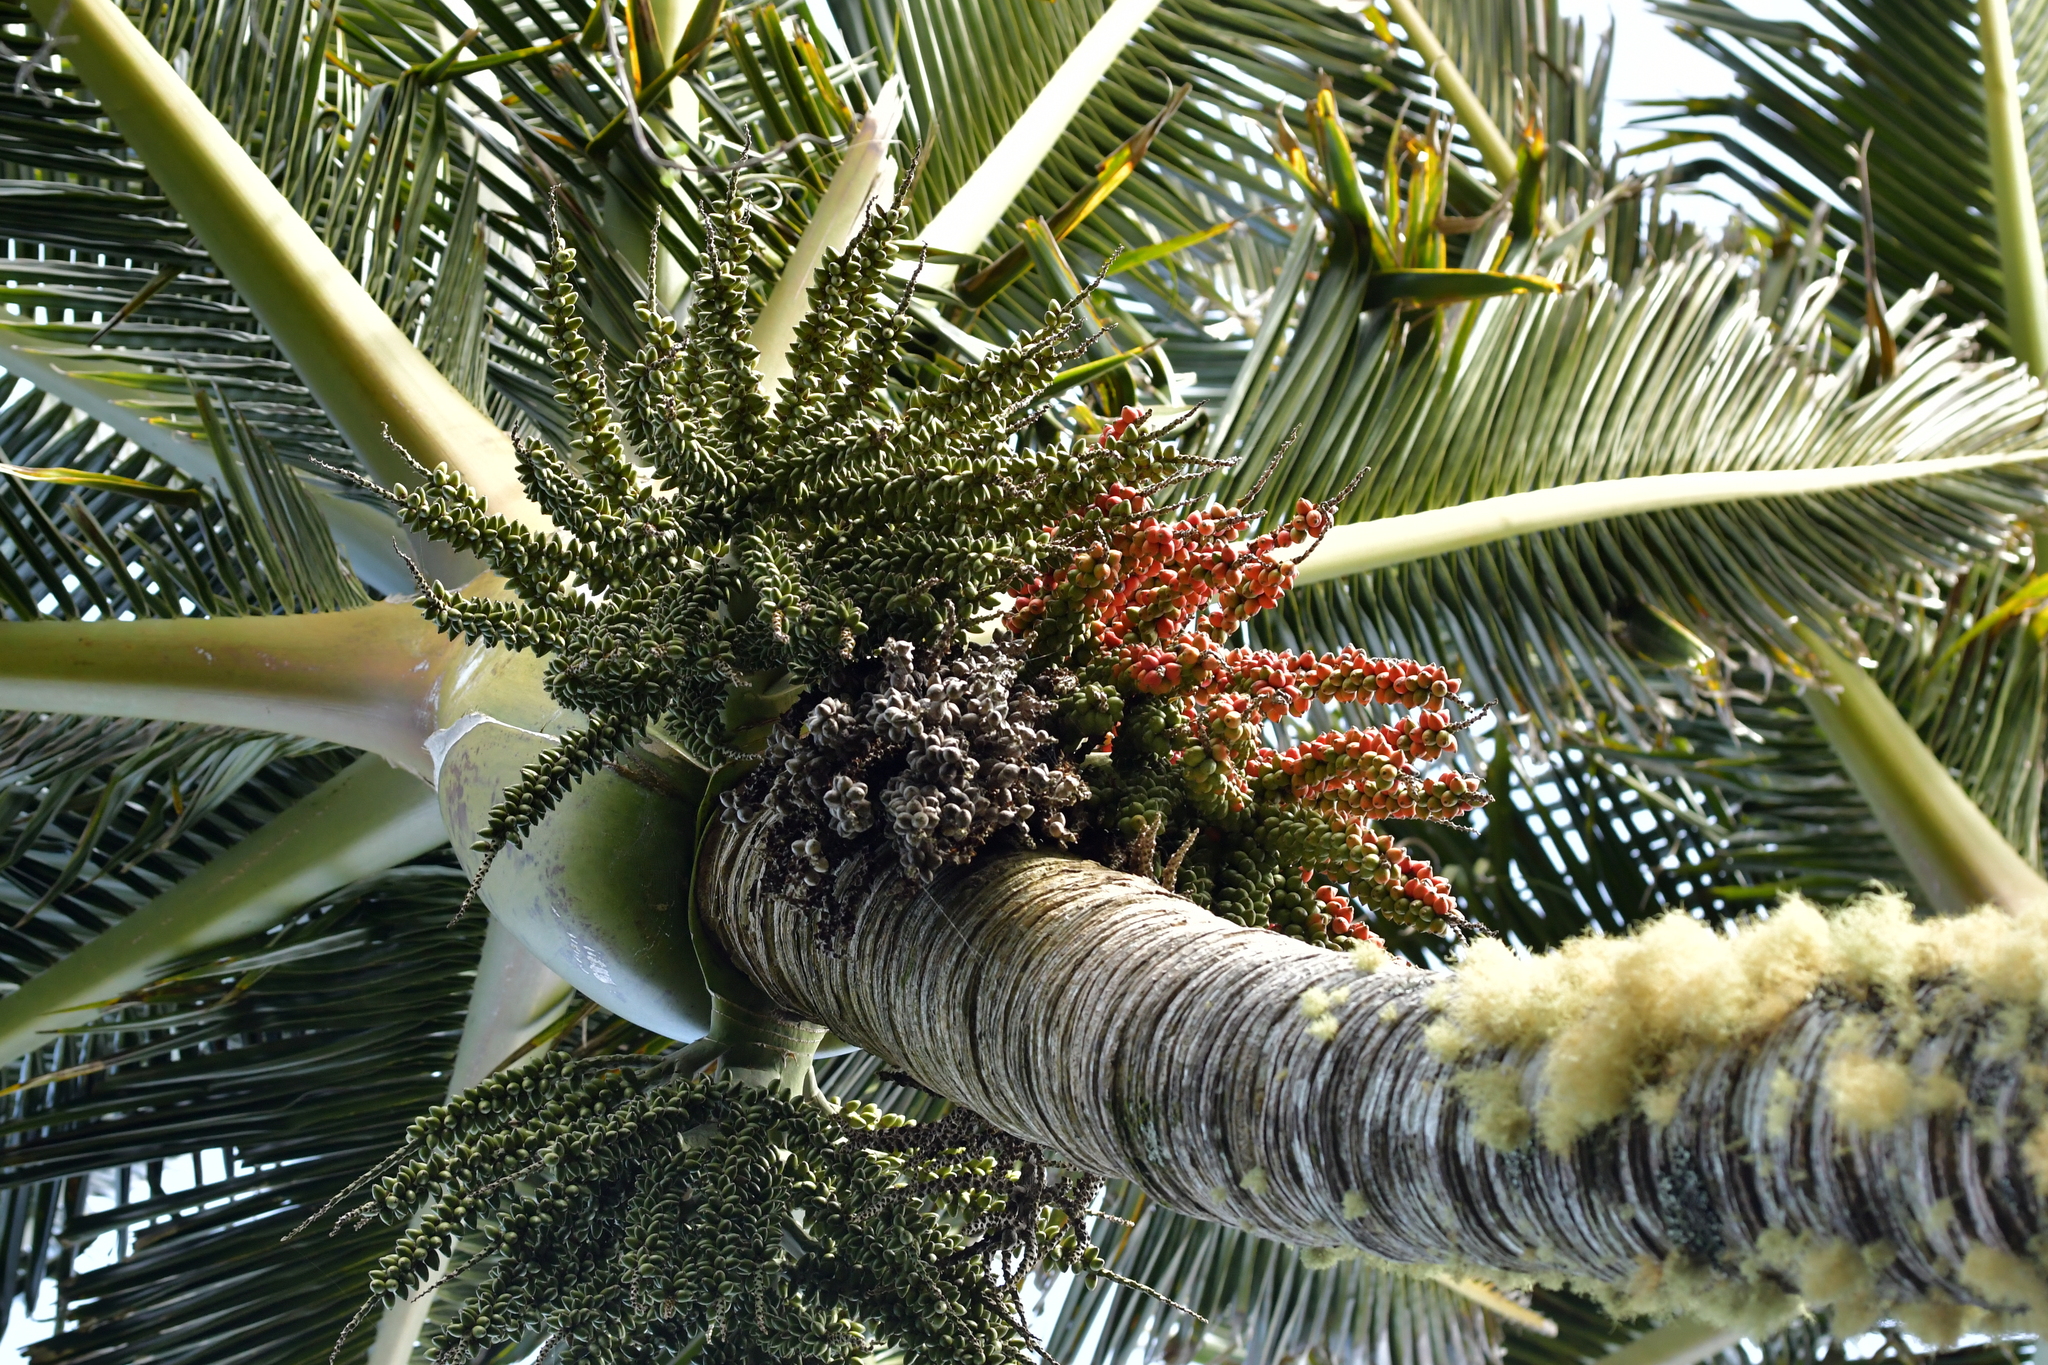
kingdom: Plantae
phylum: Tracheophyta
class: Liliopsida
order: Arecales
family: Arecaceae
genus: Rhopalostylis
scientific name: Rhopalostylis sapida
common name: Feather-duster palm
